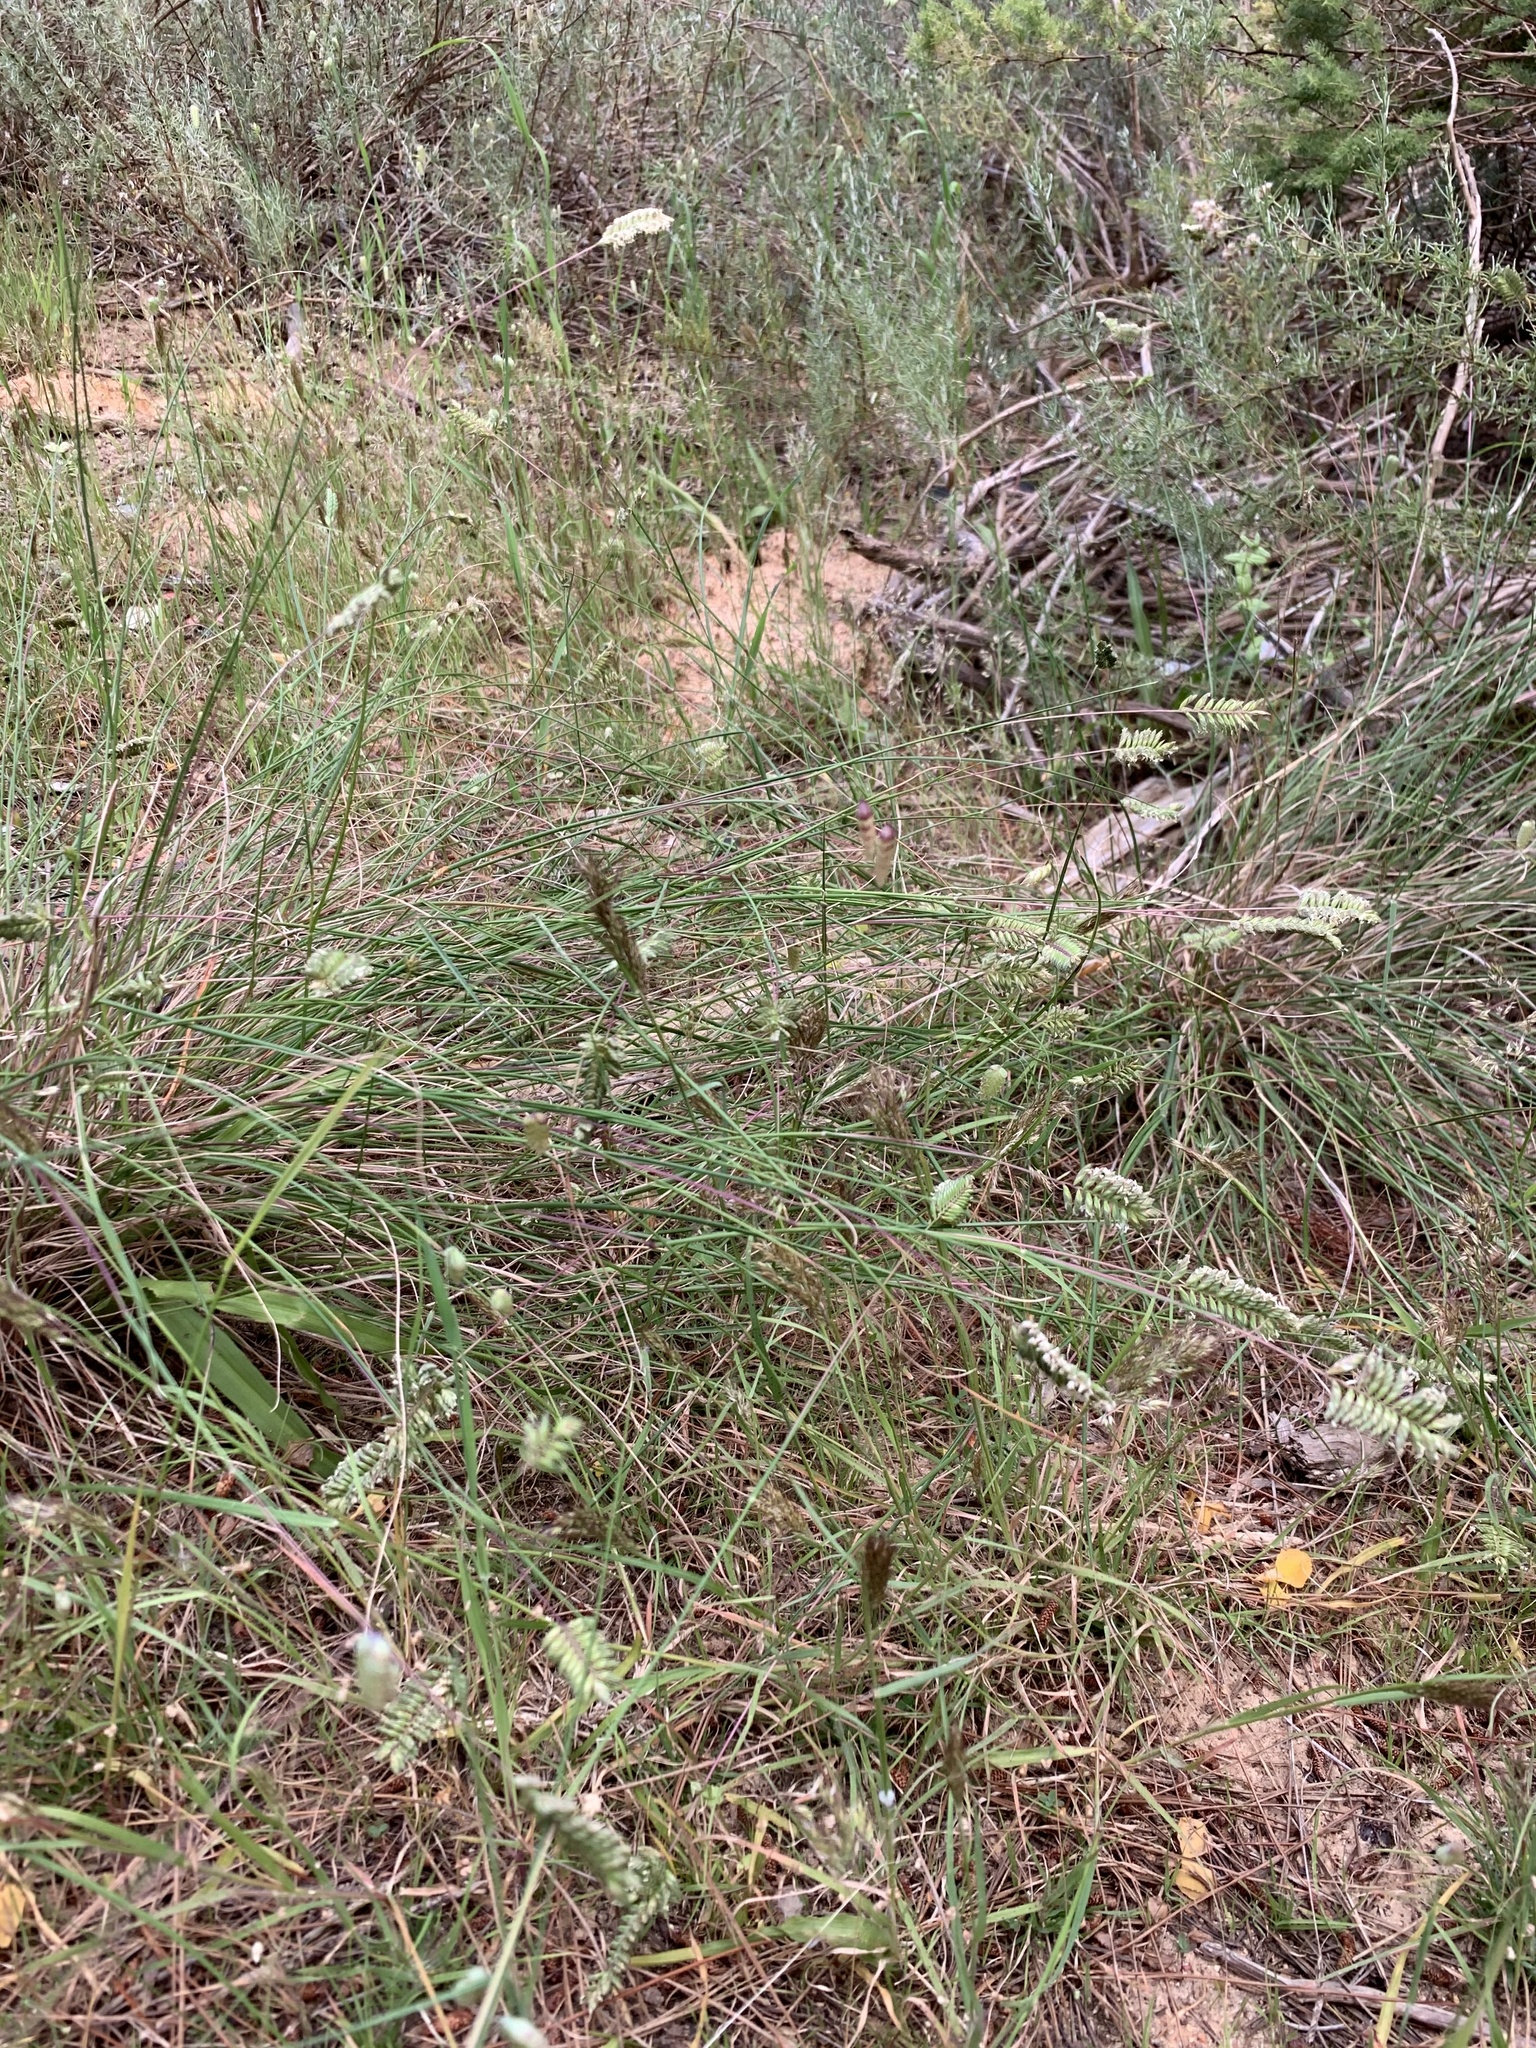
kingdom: Plantae
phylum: Tracheophyta
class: Liliopsida
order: Poales
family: Poaceae
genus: Tribolium
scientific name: Tribolium uniolae
